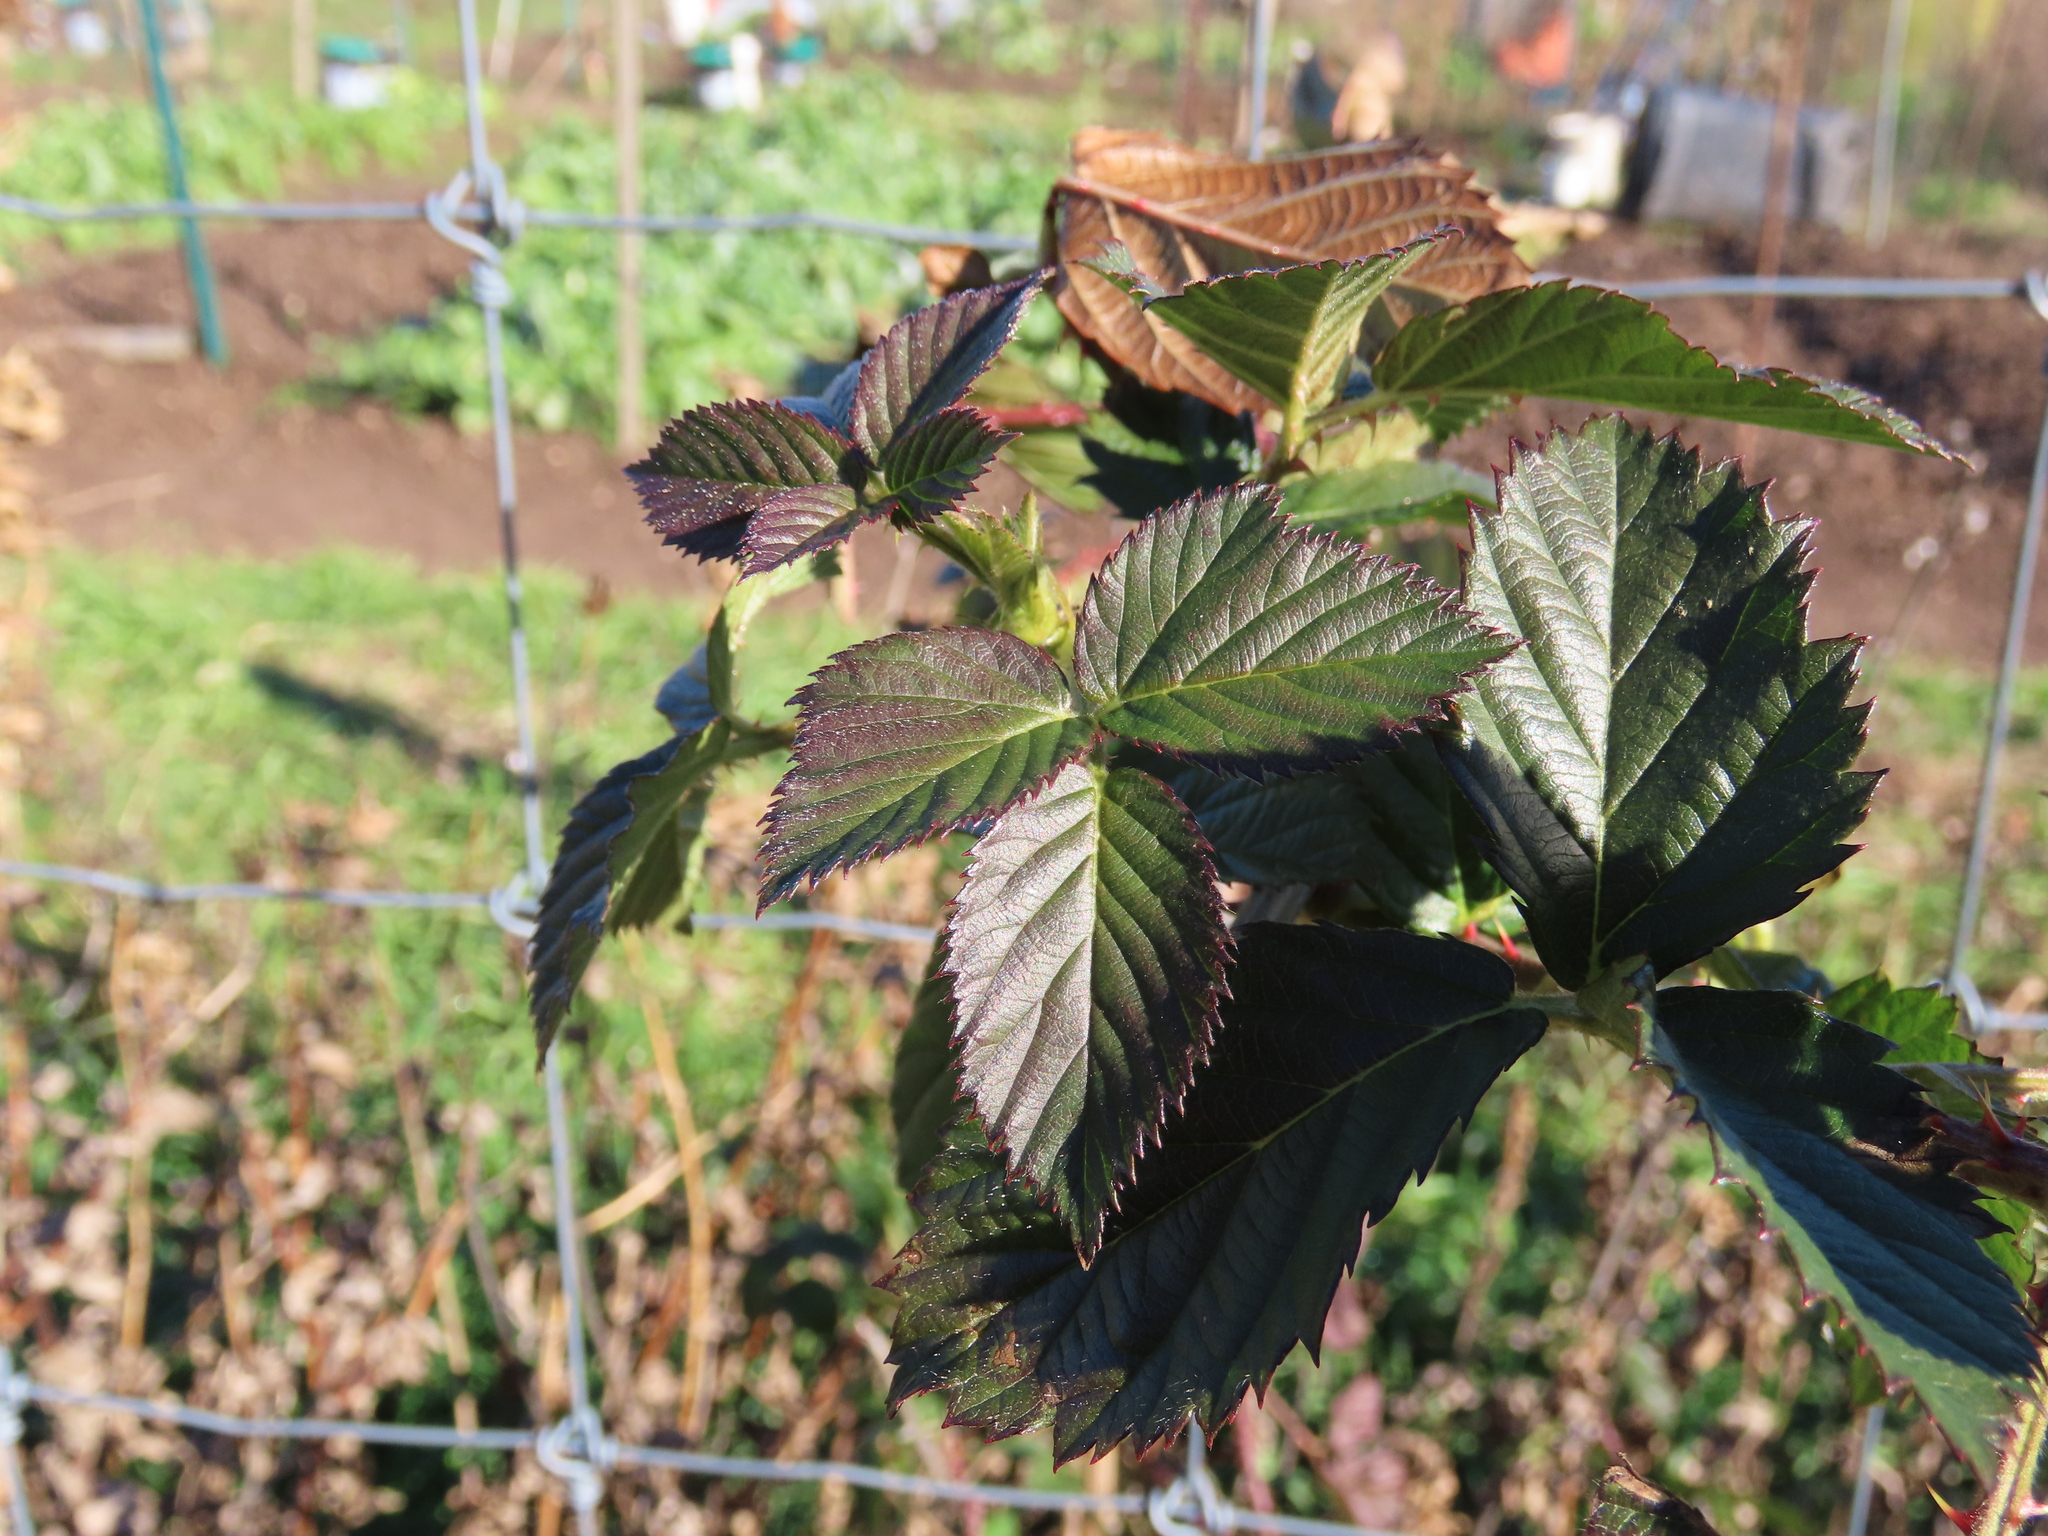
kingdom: Plantae
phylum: Tracheophyta
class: Magnoliopsida
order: Rosales
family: Rosaceae
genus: Rubus
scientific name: Rubus pensilvanicus
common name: Pennsylvania blackberry
